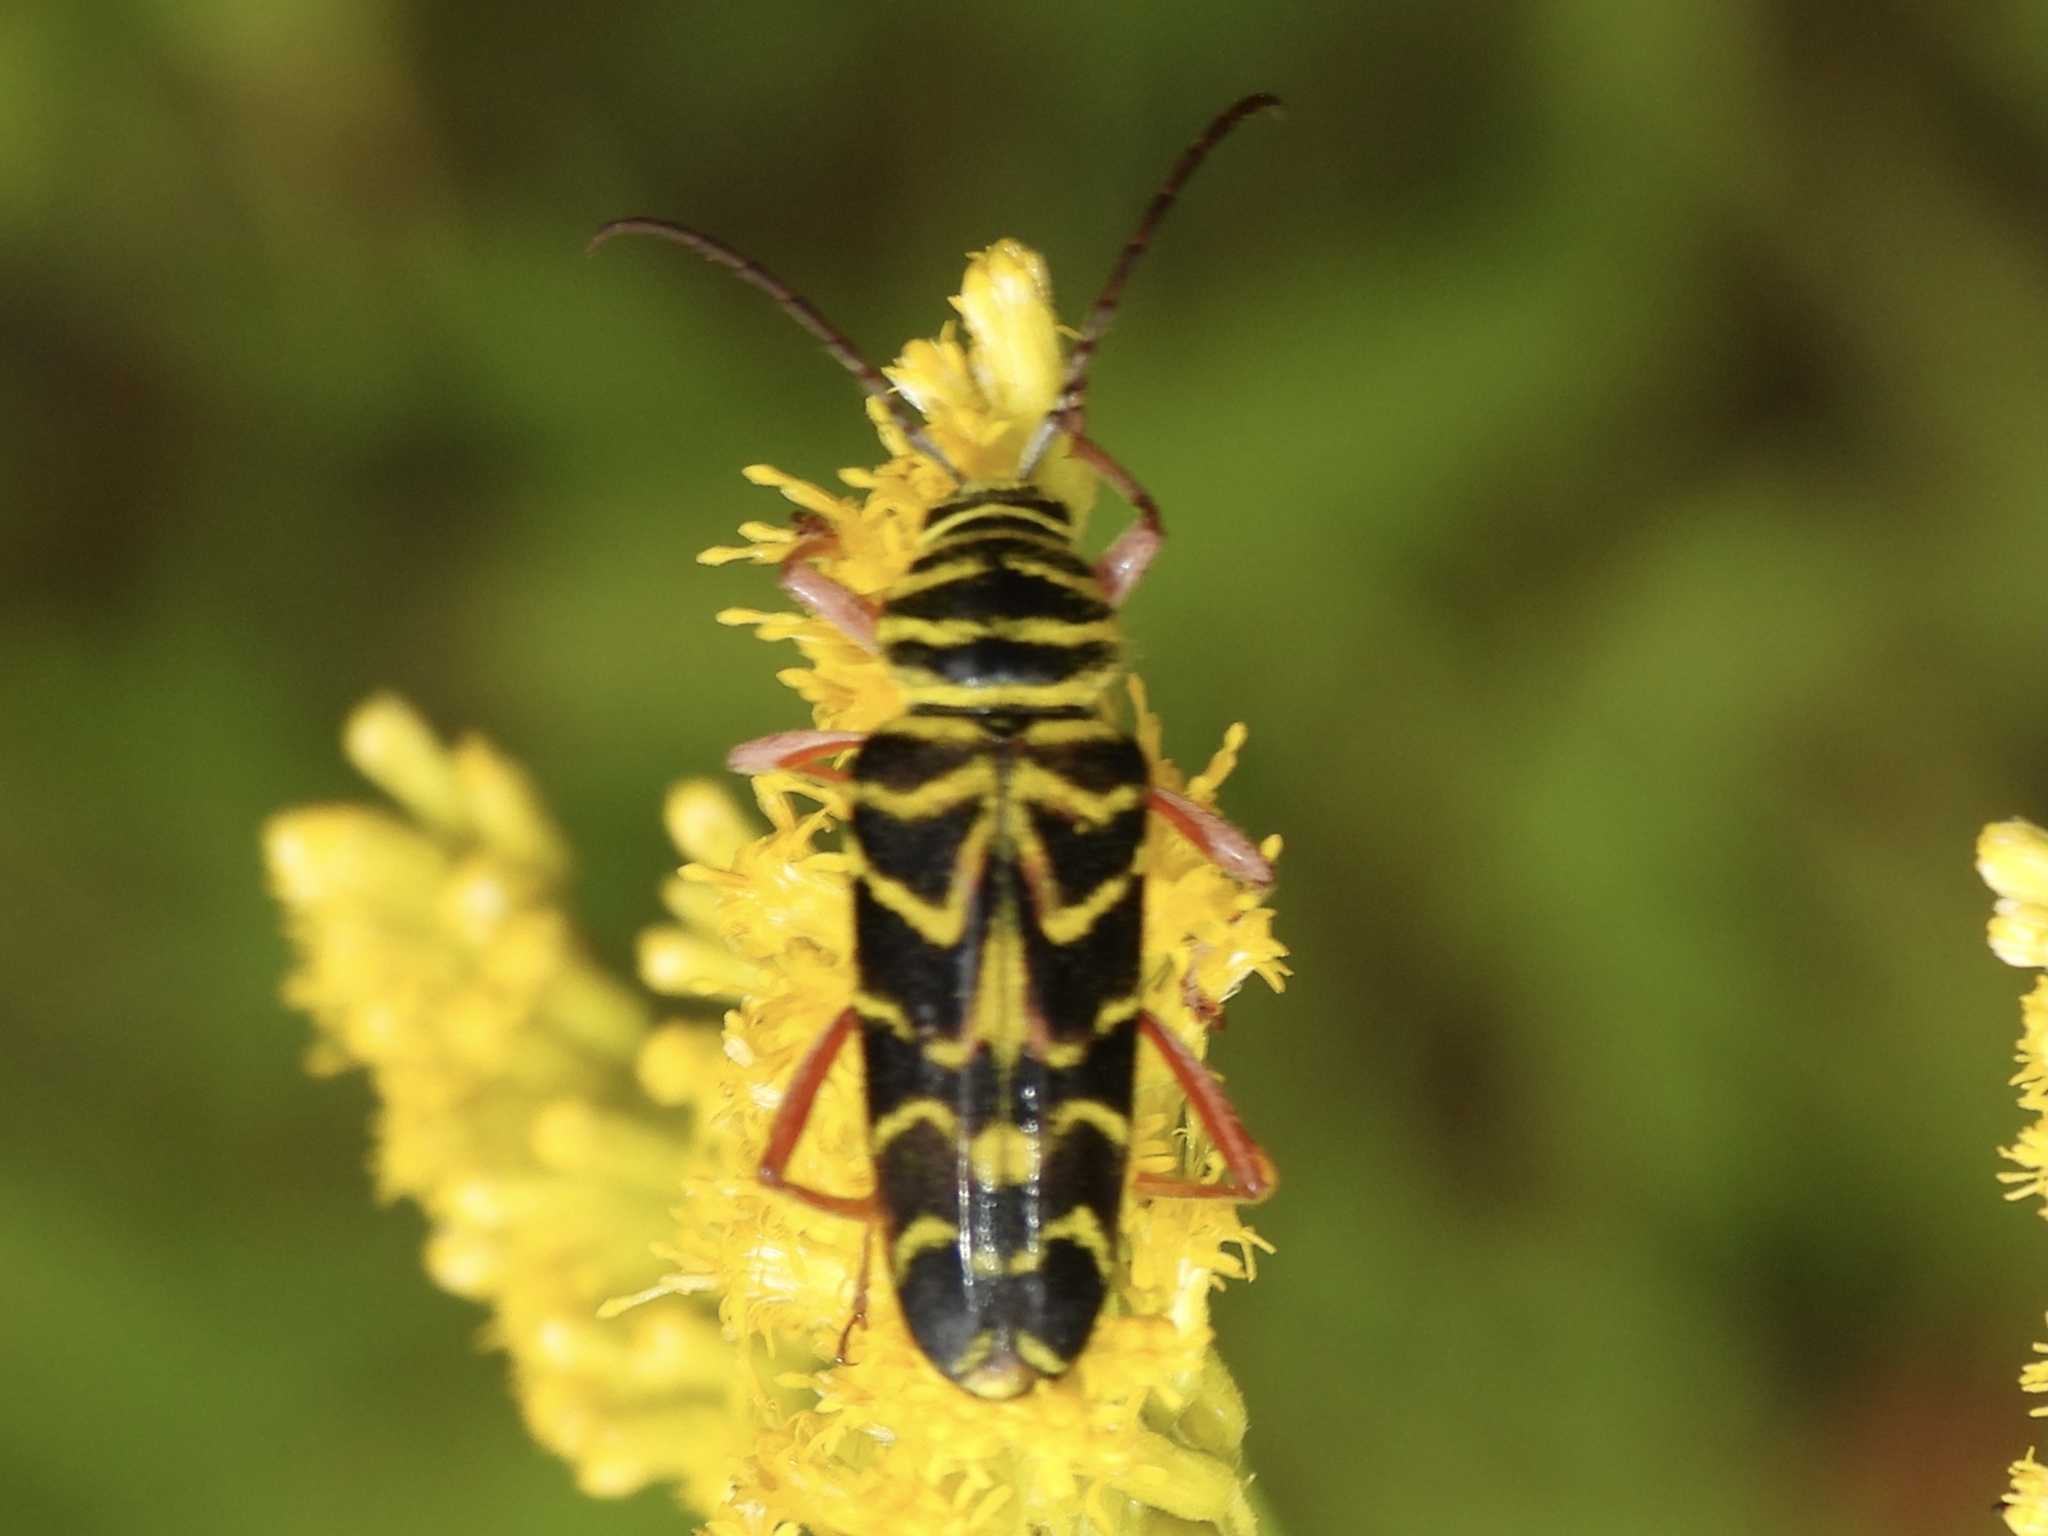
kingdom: Animalia
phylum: Arthropoda
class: Insecta
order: Coleoptera
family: Cerambycidae
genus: Megacyllene
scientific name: Megacyllene robiniae
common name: Locust borer
